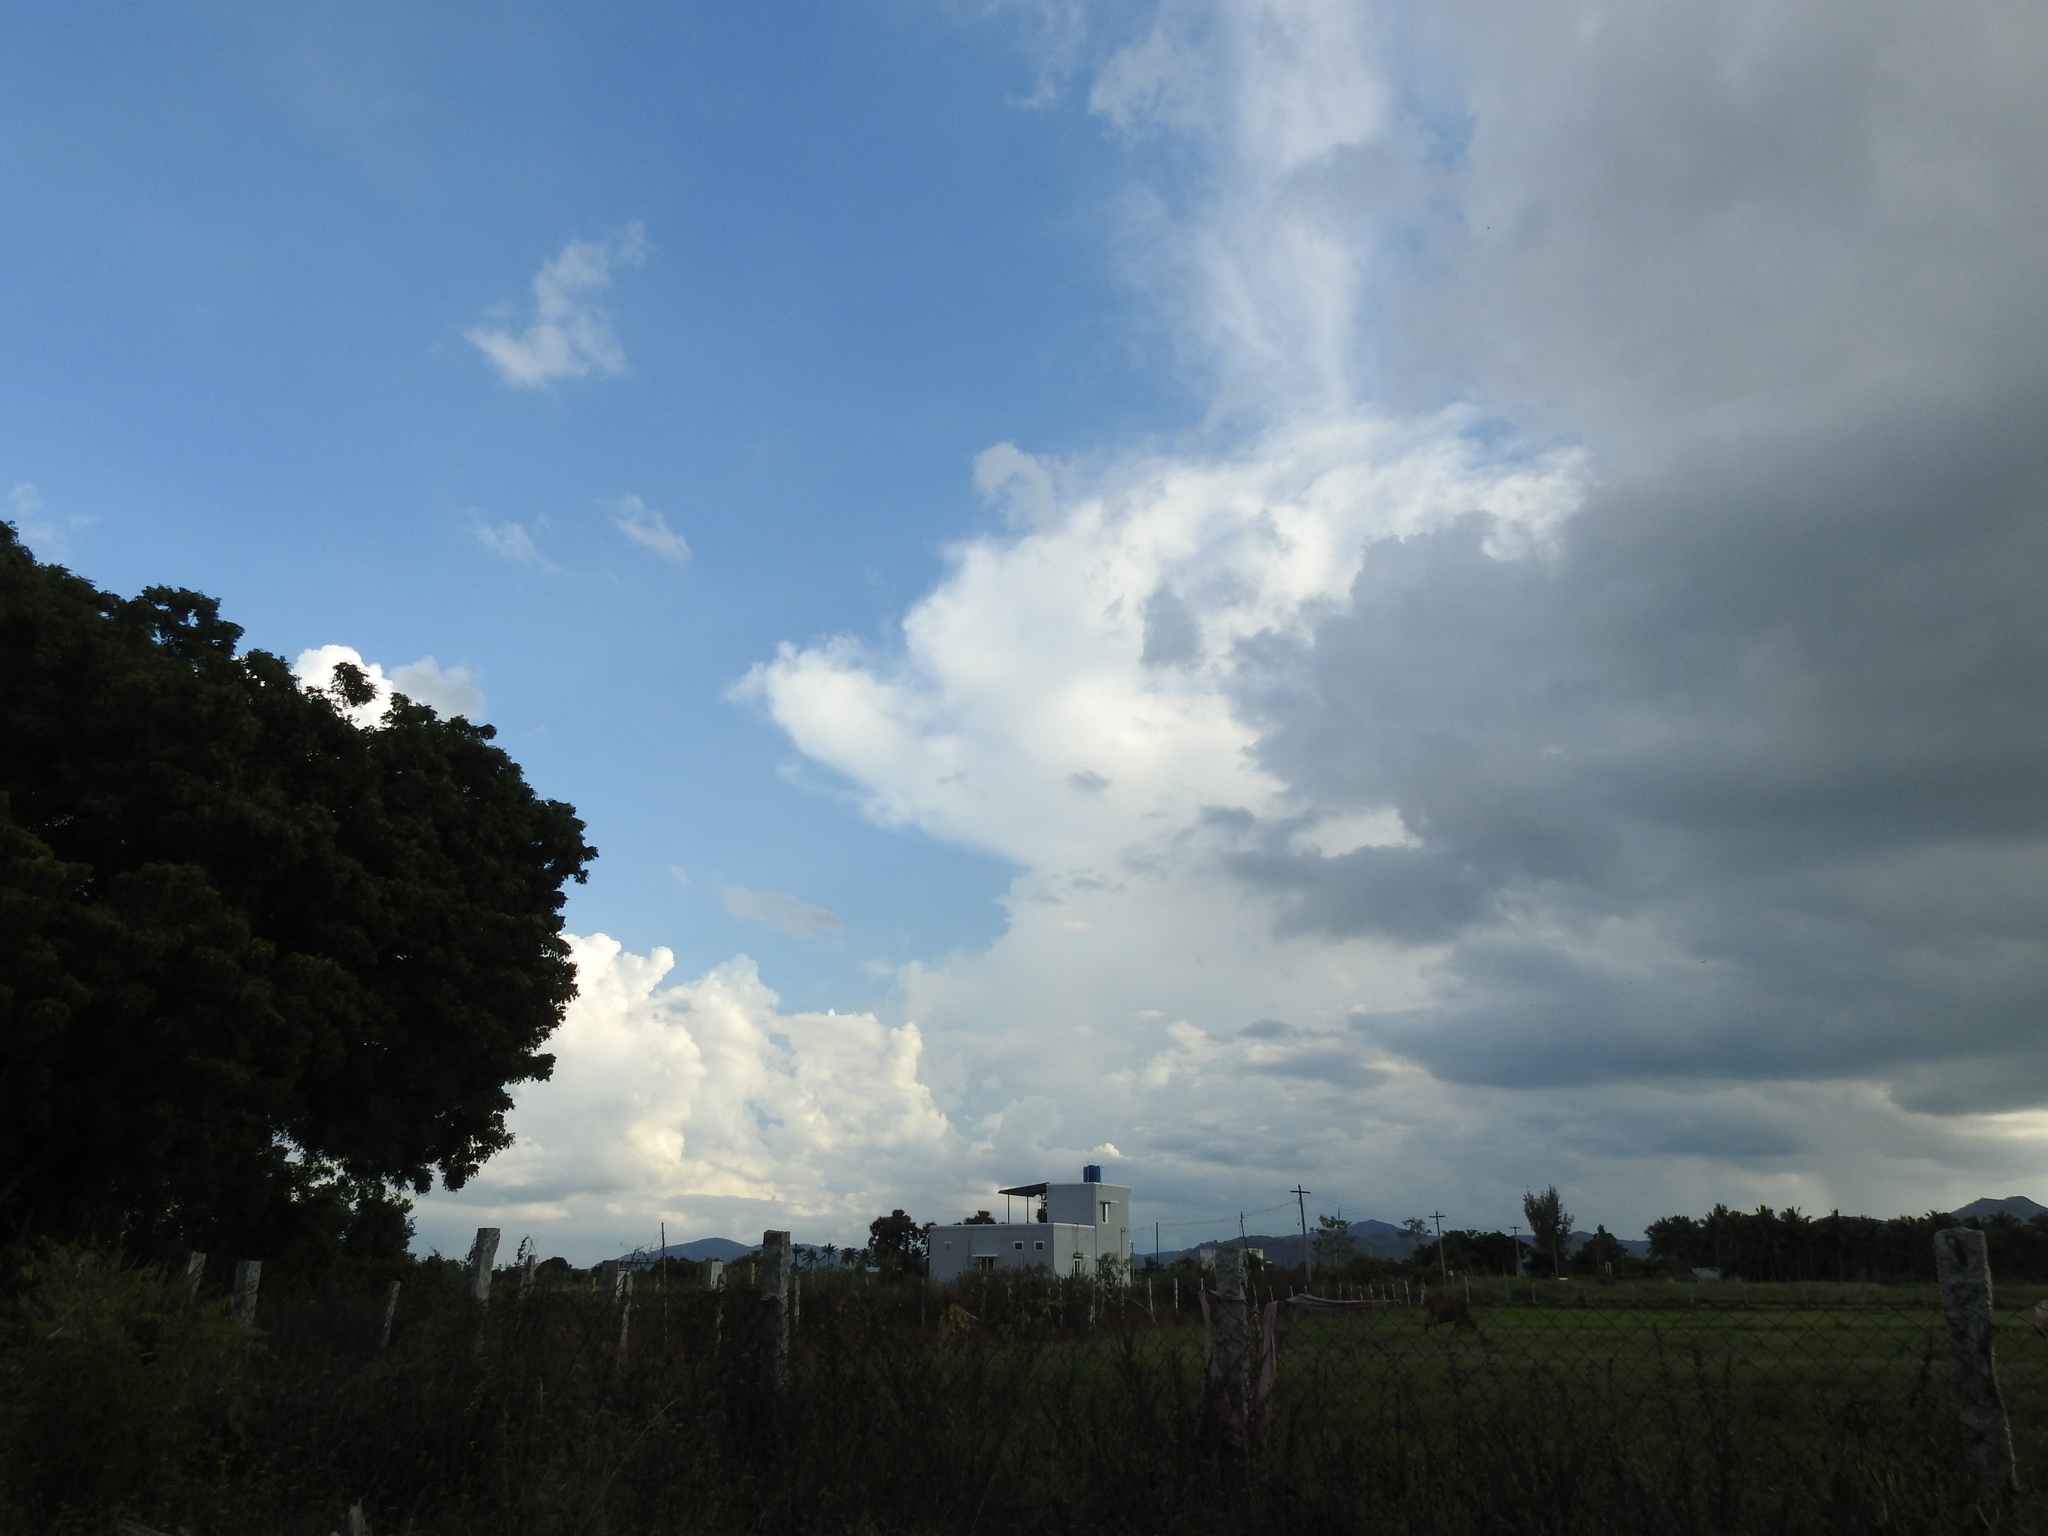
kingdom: Plantae
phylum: Tracheophyta
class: Liliopsida
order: Arecales
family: Arecaceae
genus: Cocos
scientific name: Cocos nucifera
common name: Coconut palm
